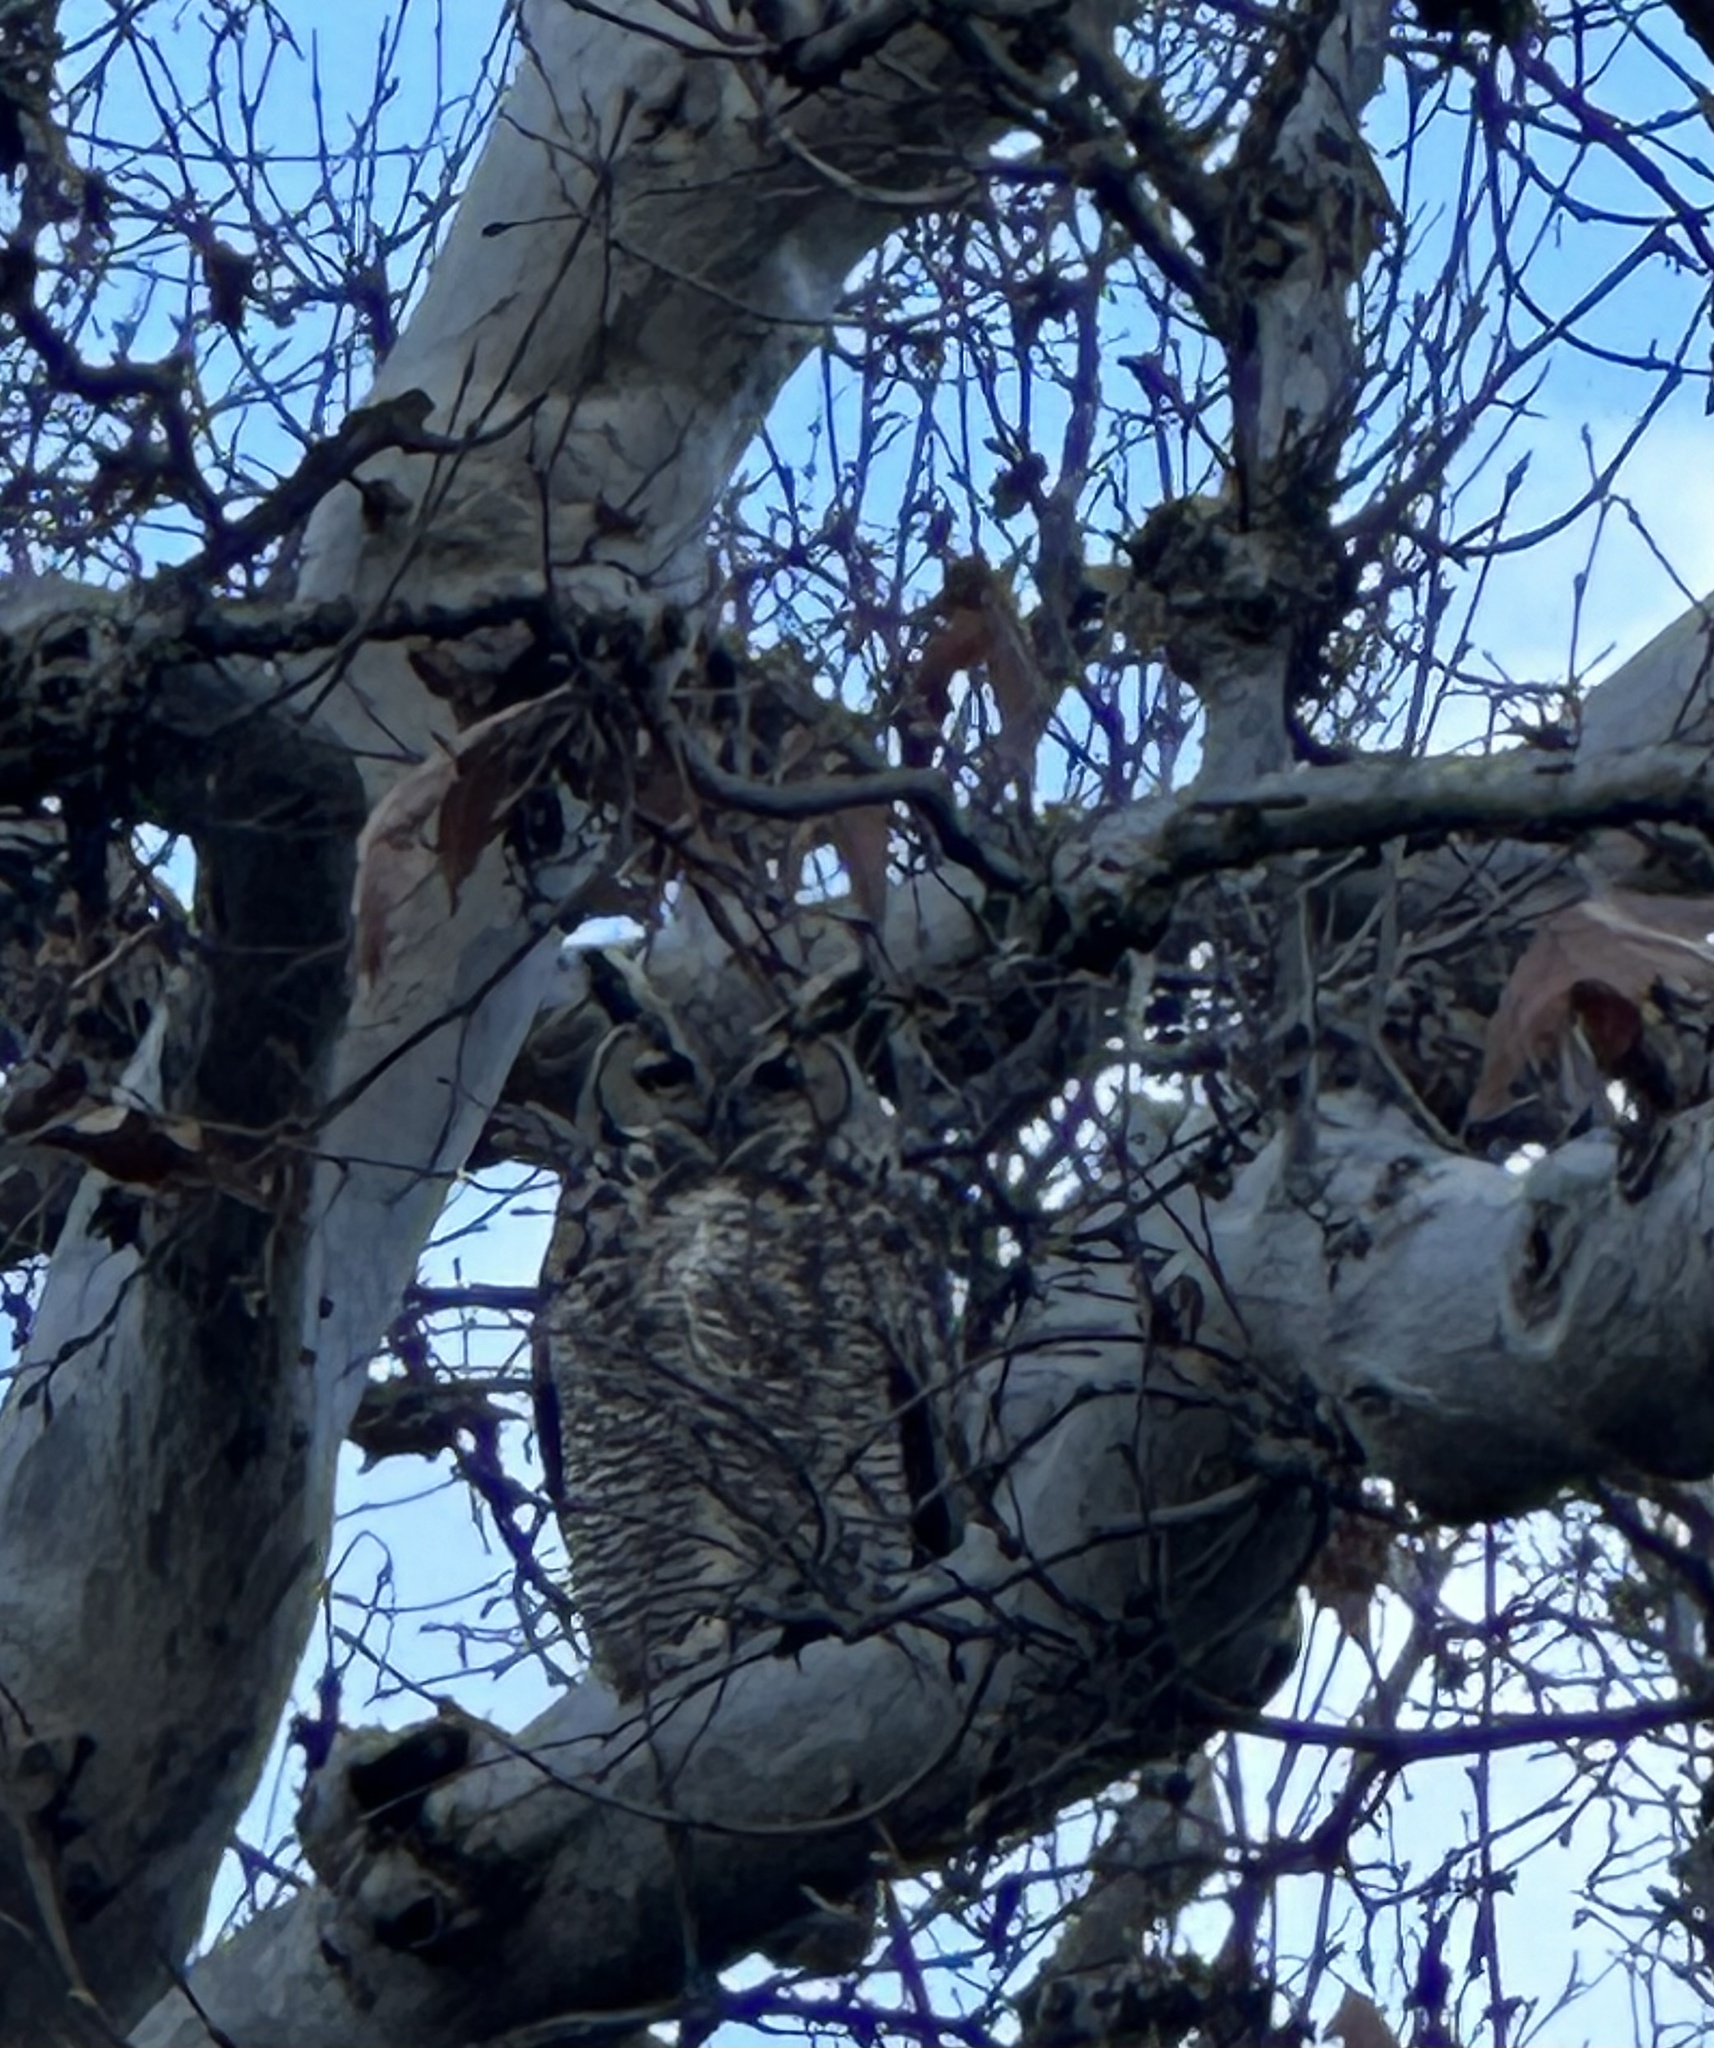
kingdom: Animalia
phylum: Chordata
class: Aves
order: Strigiformes
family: Strigidae
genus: Bubo
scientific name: Bubo virginianus
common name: Great horned owl
